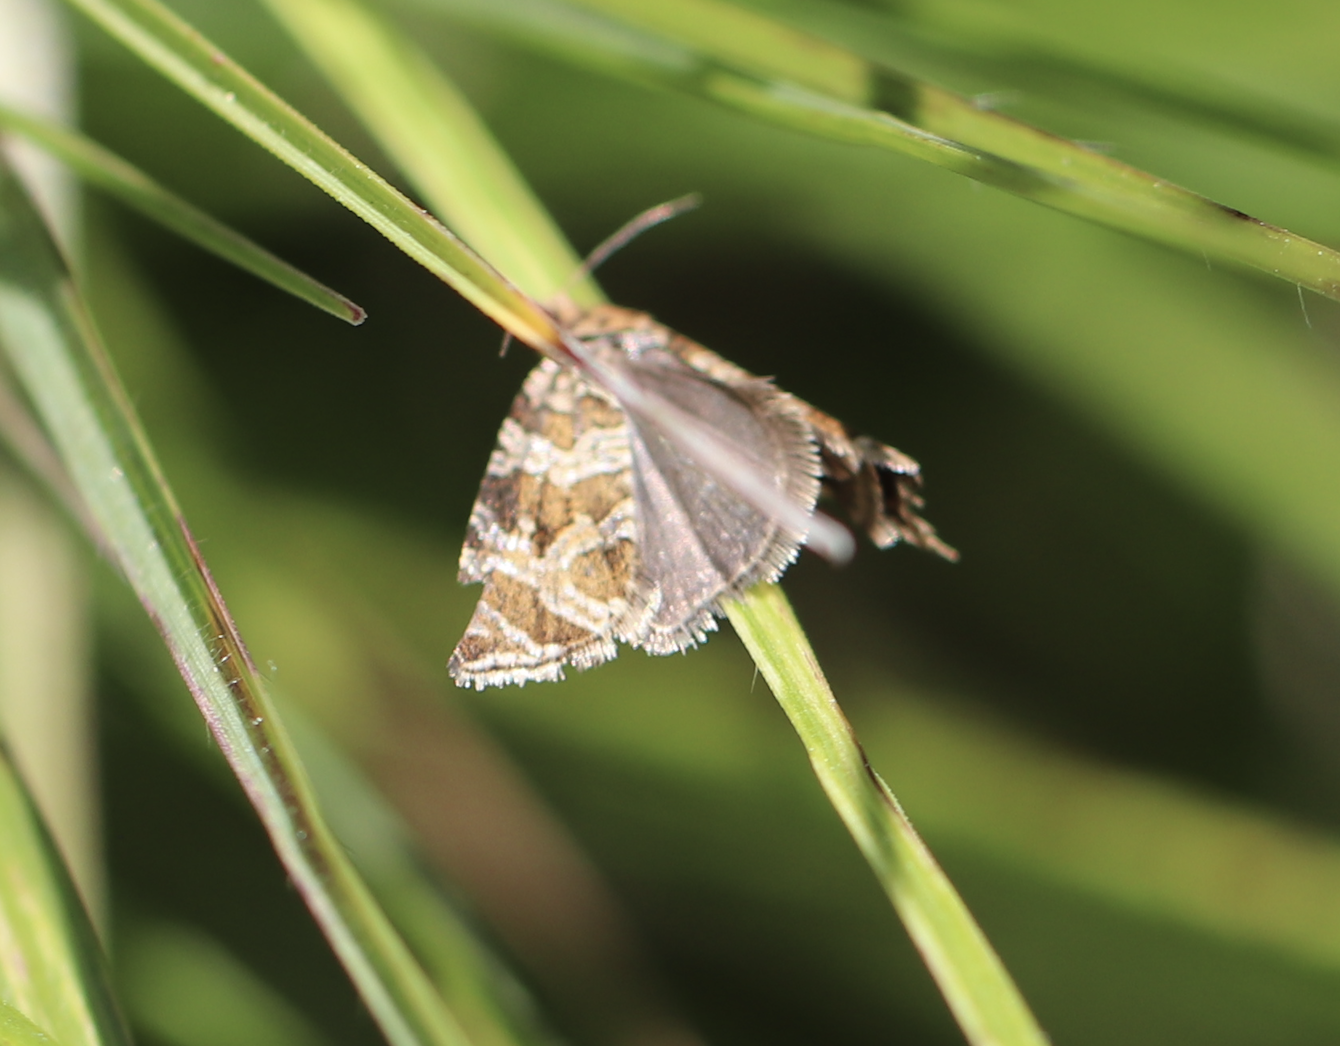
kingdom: Animalia
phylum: Arthropoda
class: Insecta
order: Lepidoptera
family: Tortricidae
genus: Syricoris
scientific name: Syricoris rivulana
